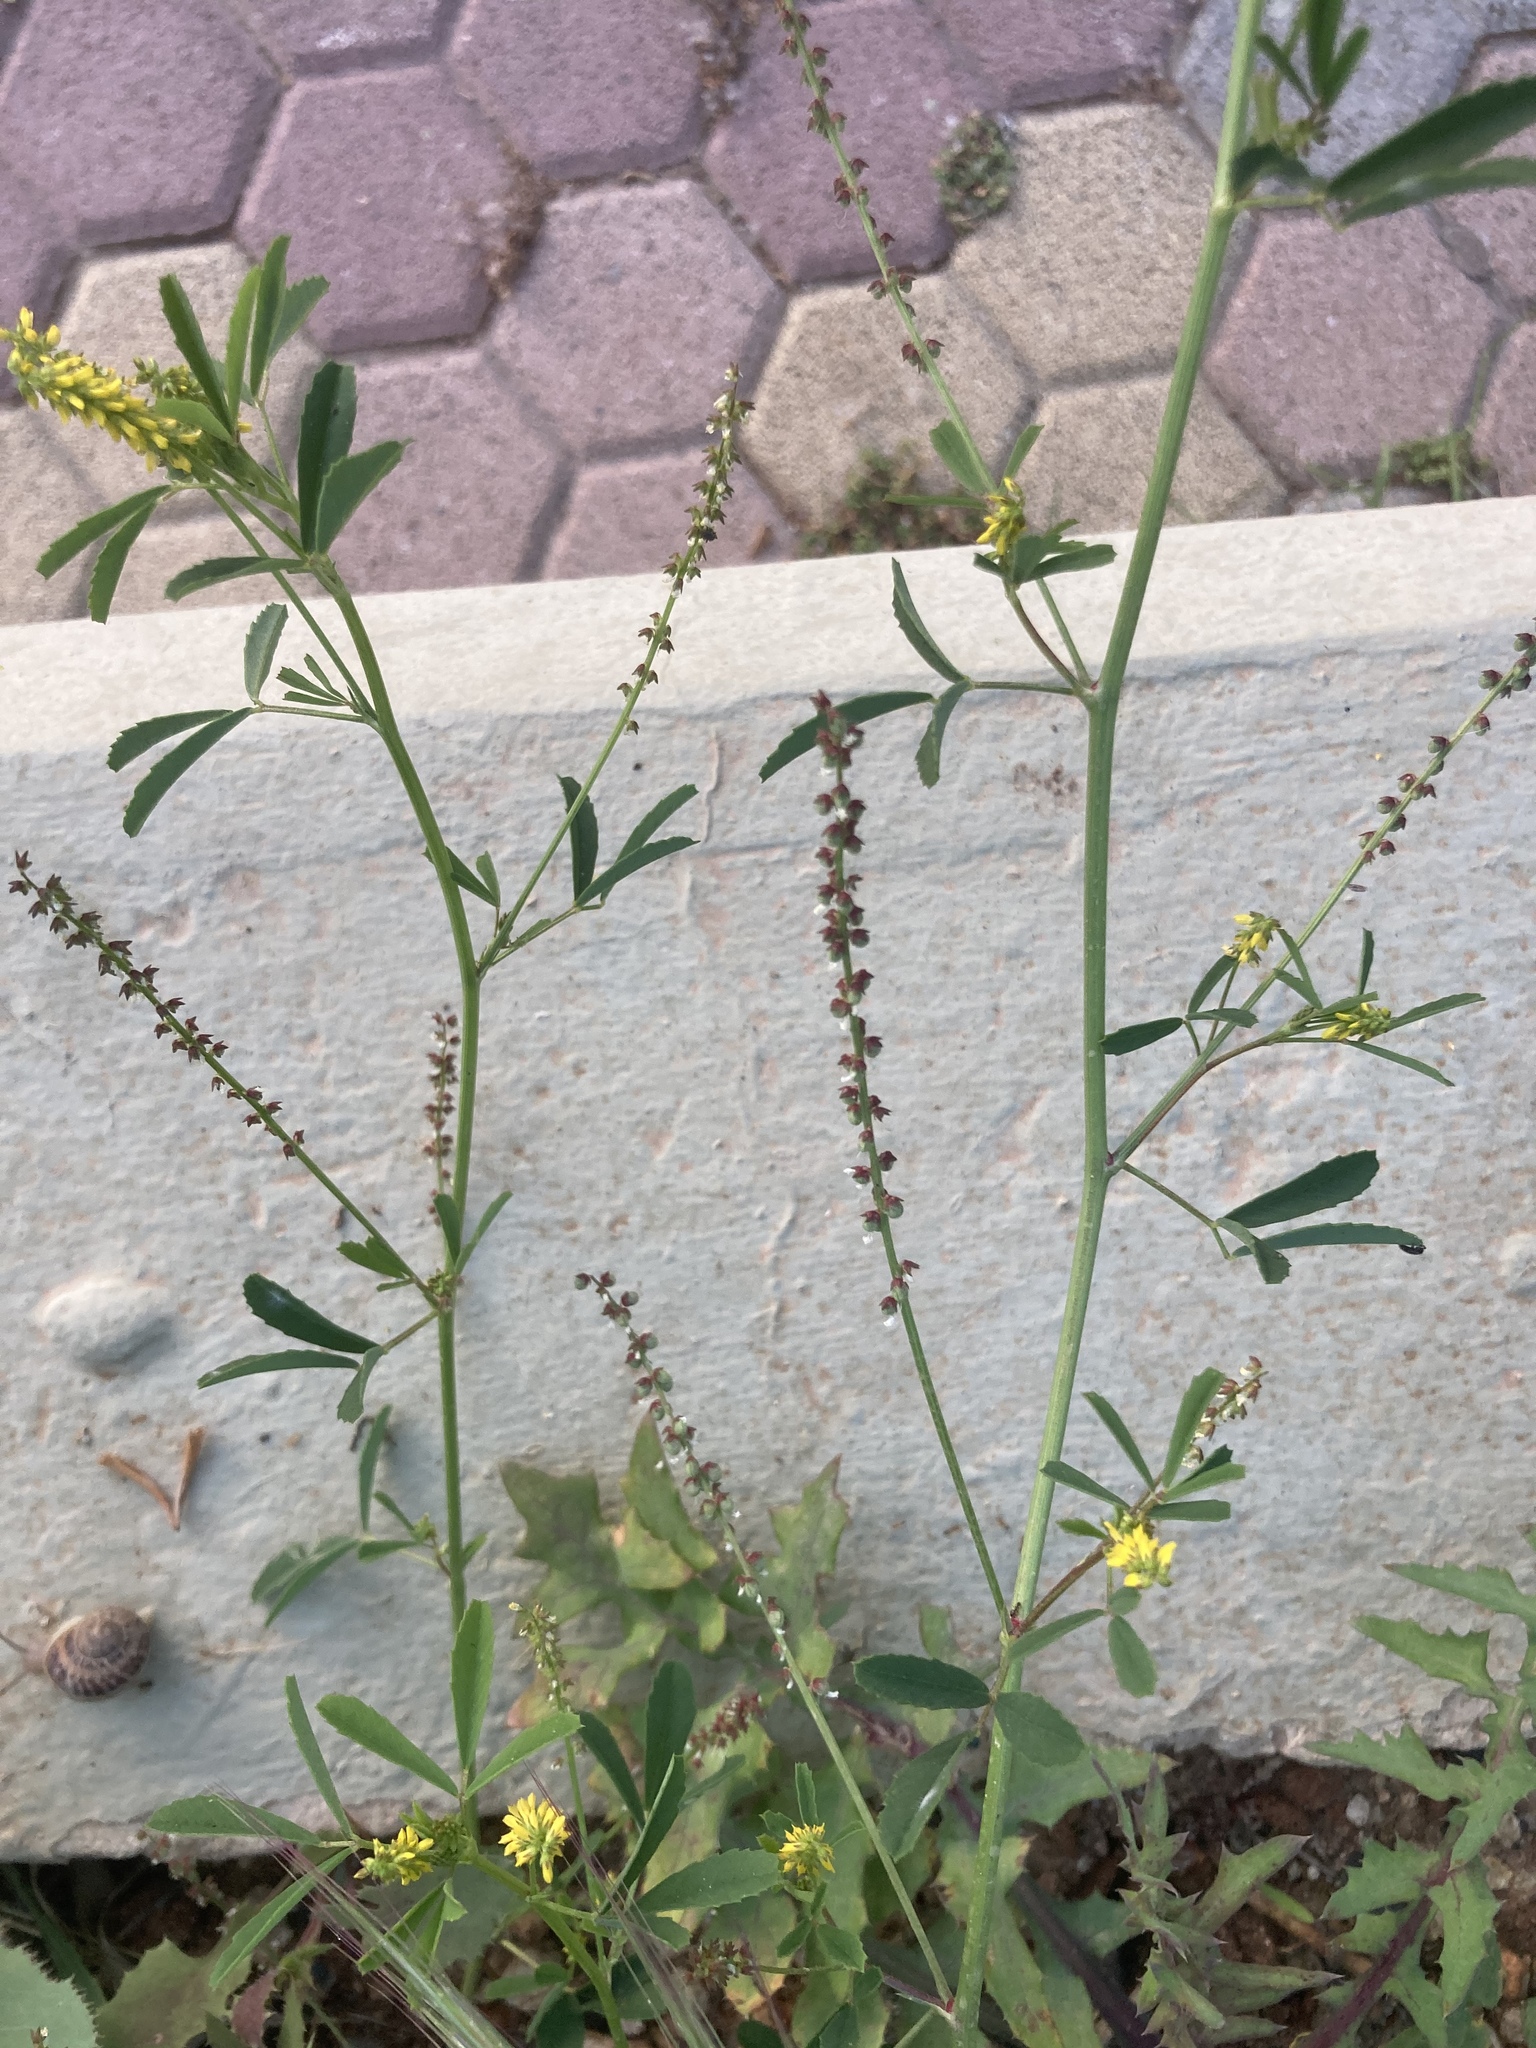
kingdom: Plantae
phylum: Tracheophyta
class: Magnoliopsida
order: Fabales
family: Fabaceae
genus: Melilotus
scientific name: Melilotus indicus
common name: Small melilot
